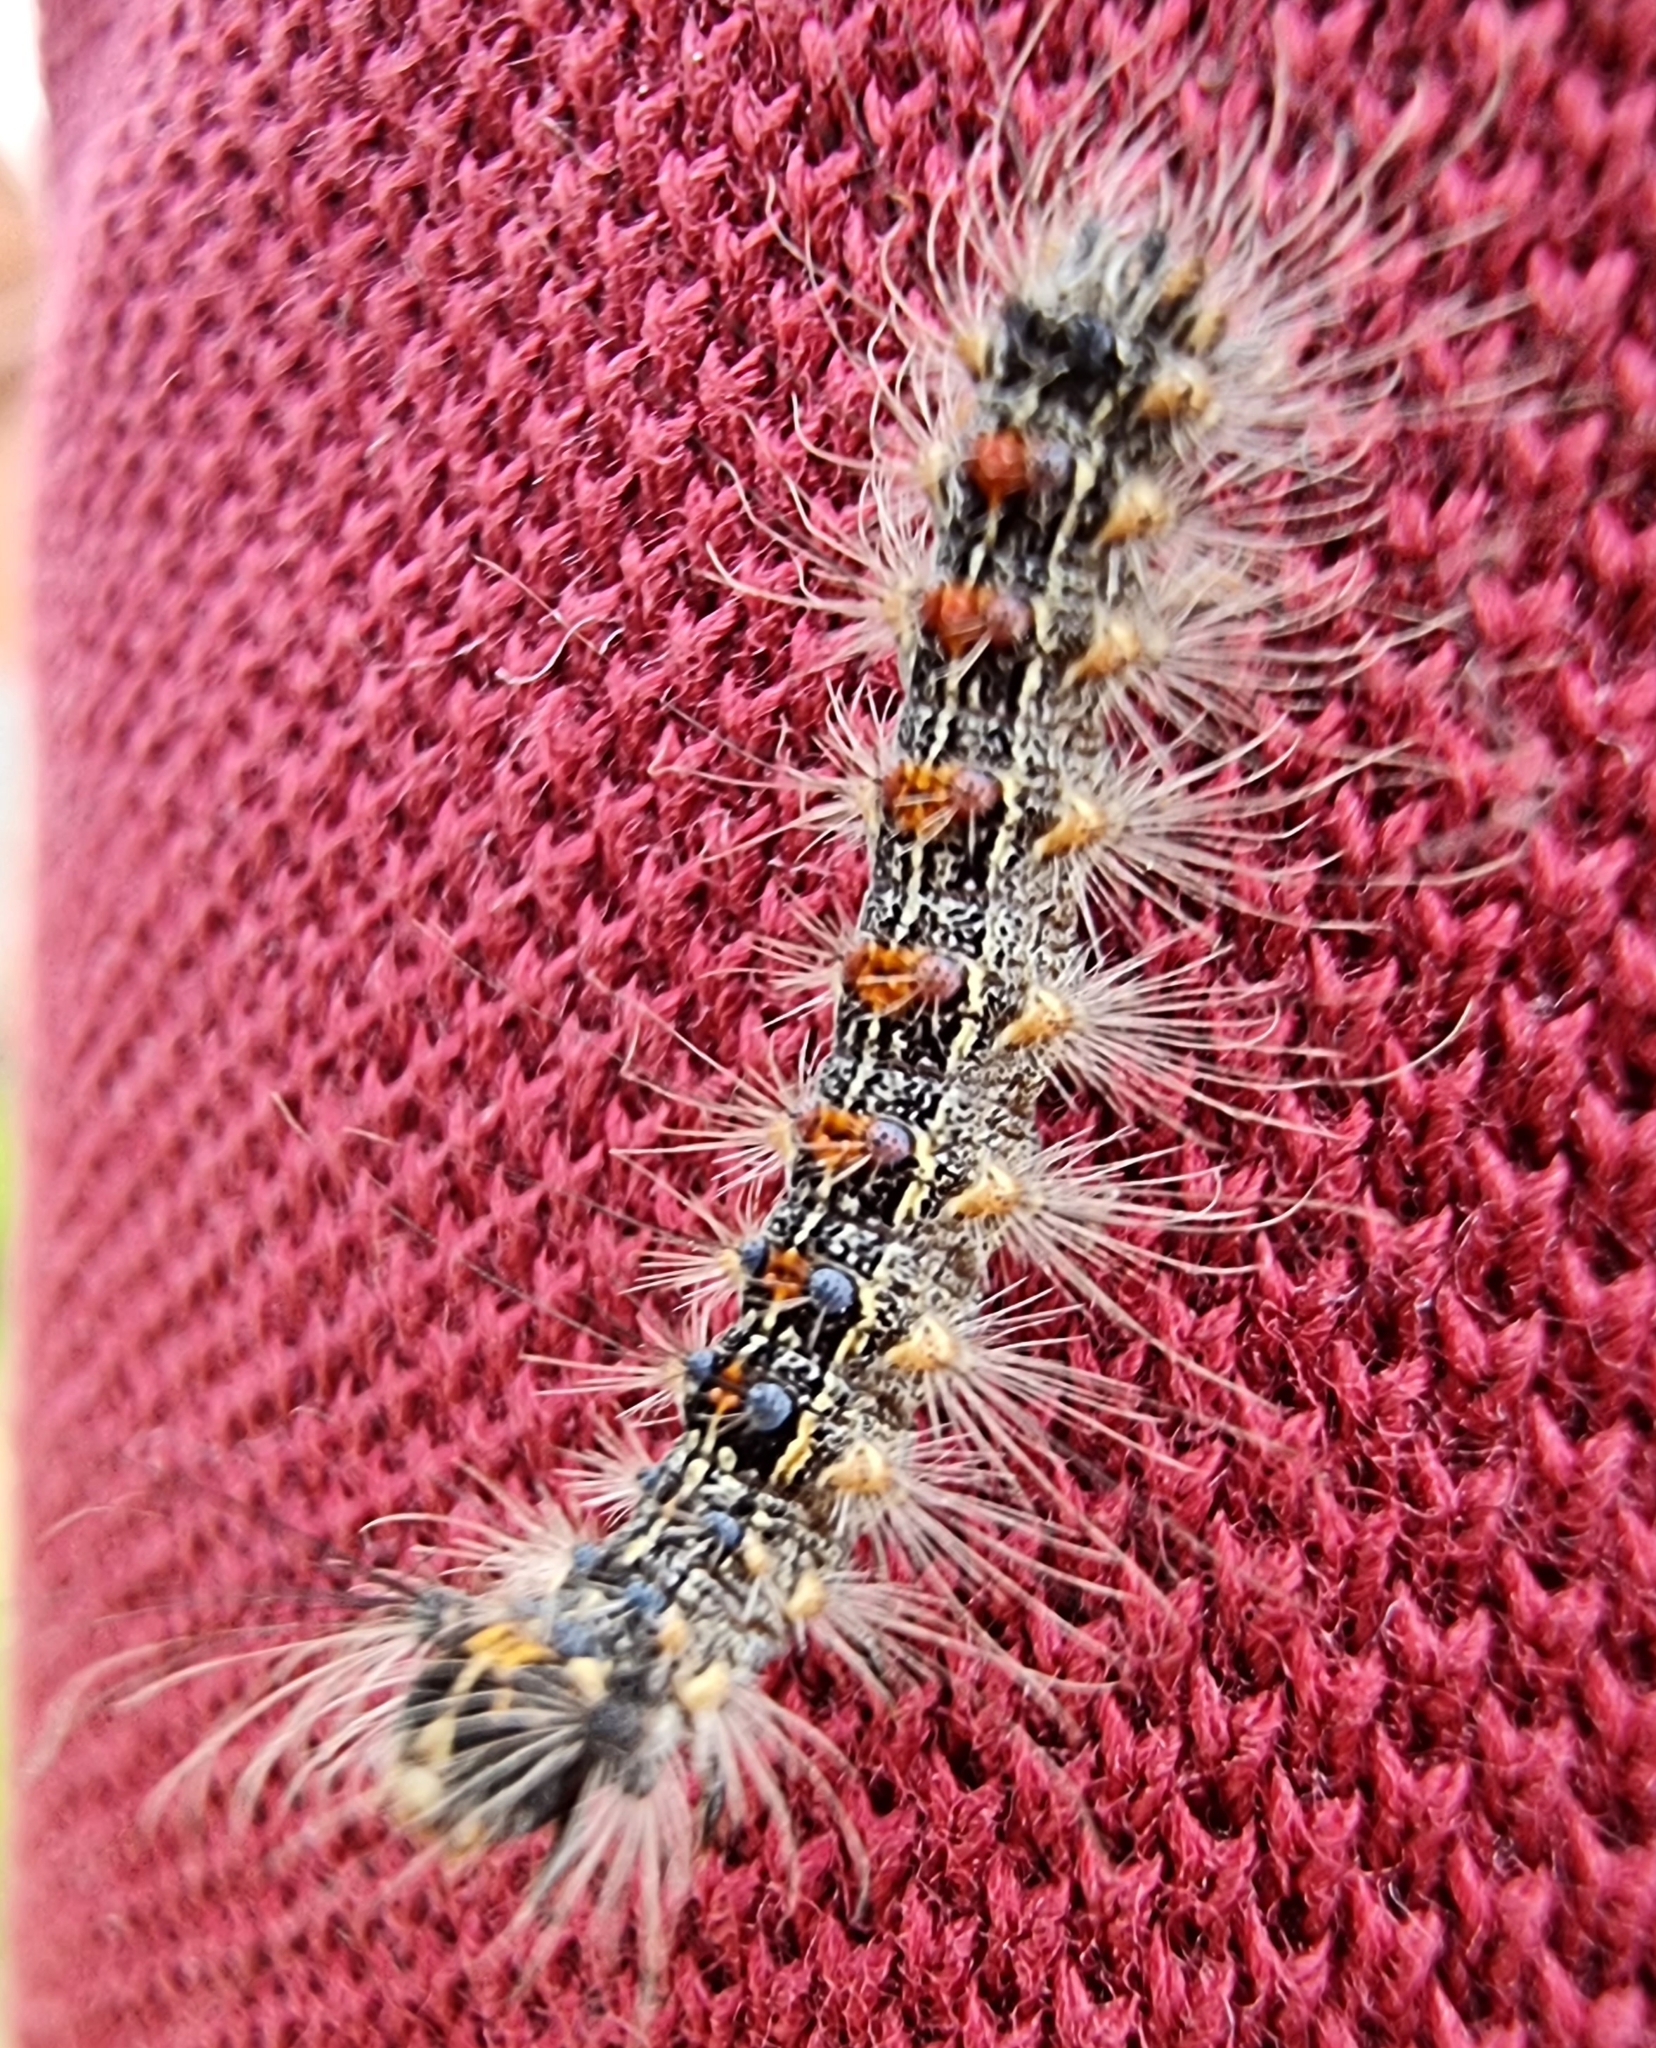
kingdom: Animalia
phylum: Arthropoda
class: Insecta
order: Lepidoptera
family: Erebidae
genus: Lymantria
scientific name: Lymantria dispar
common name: Gypsy moth
